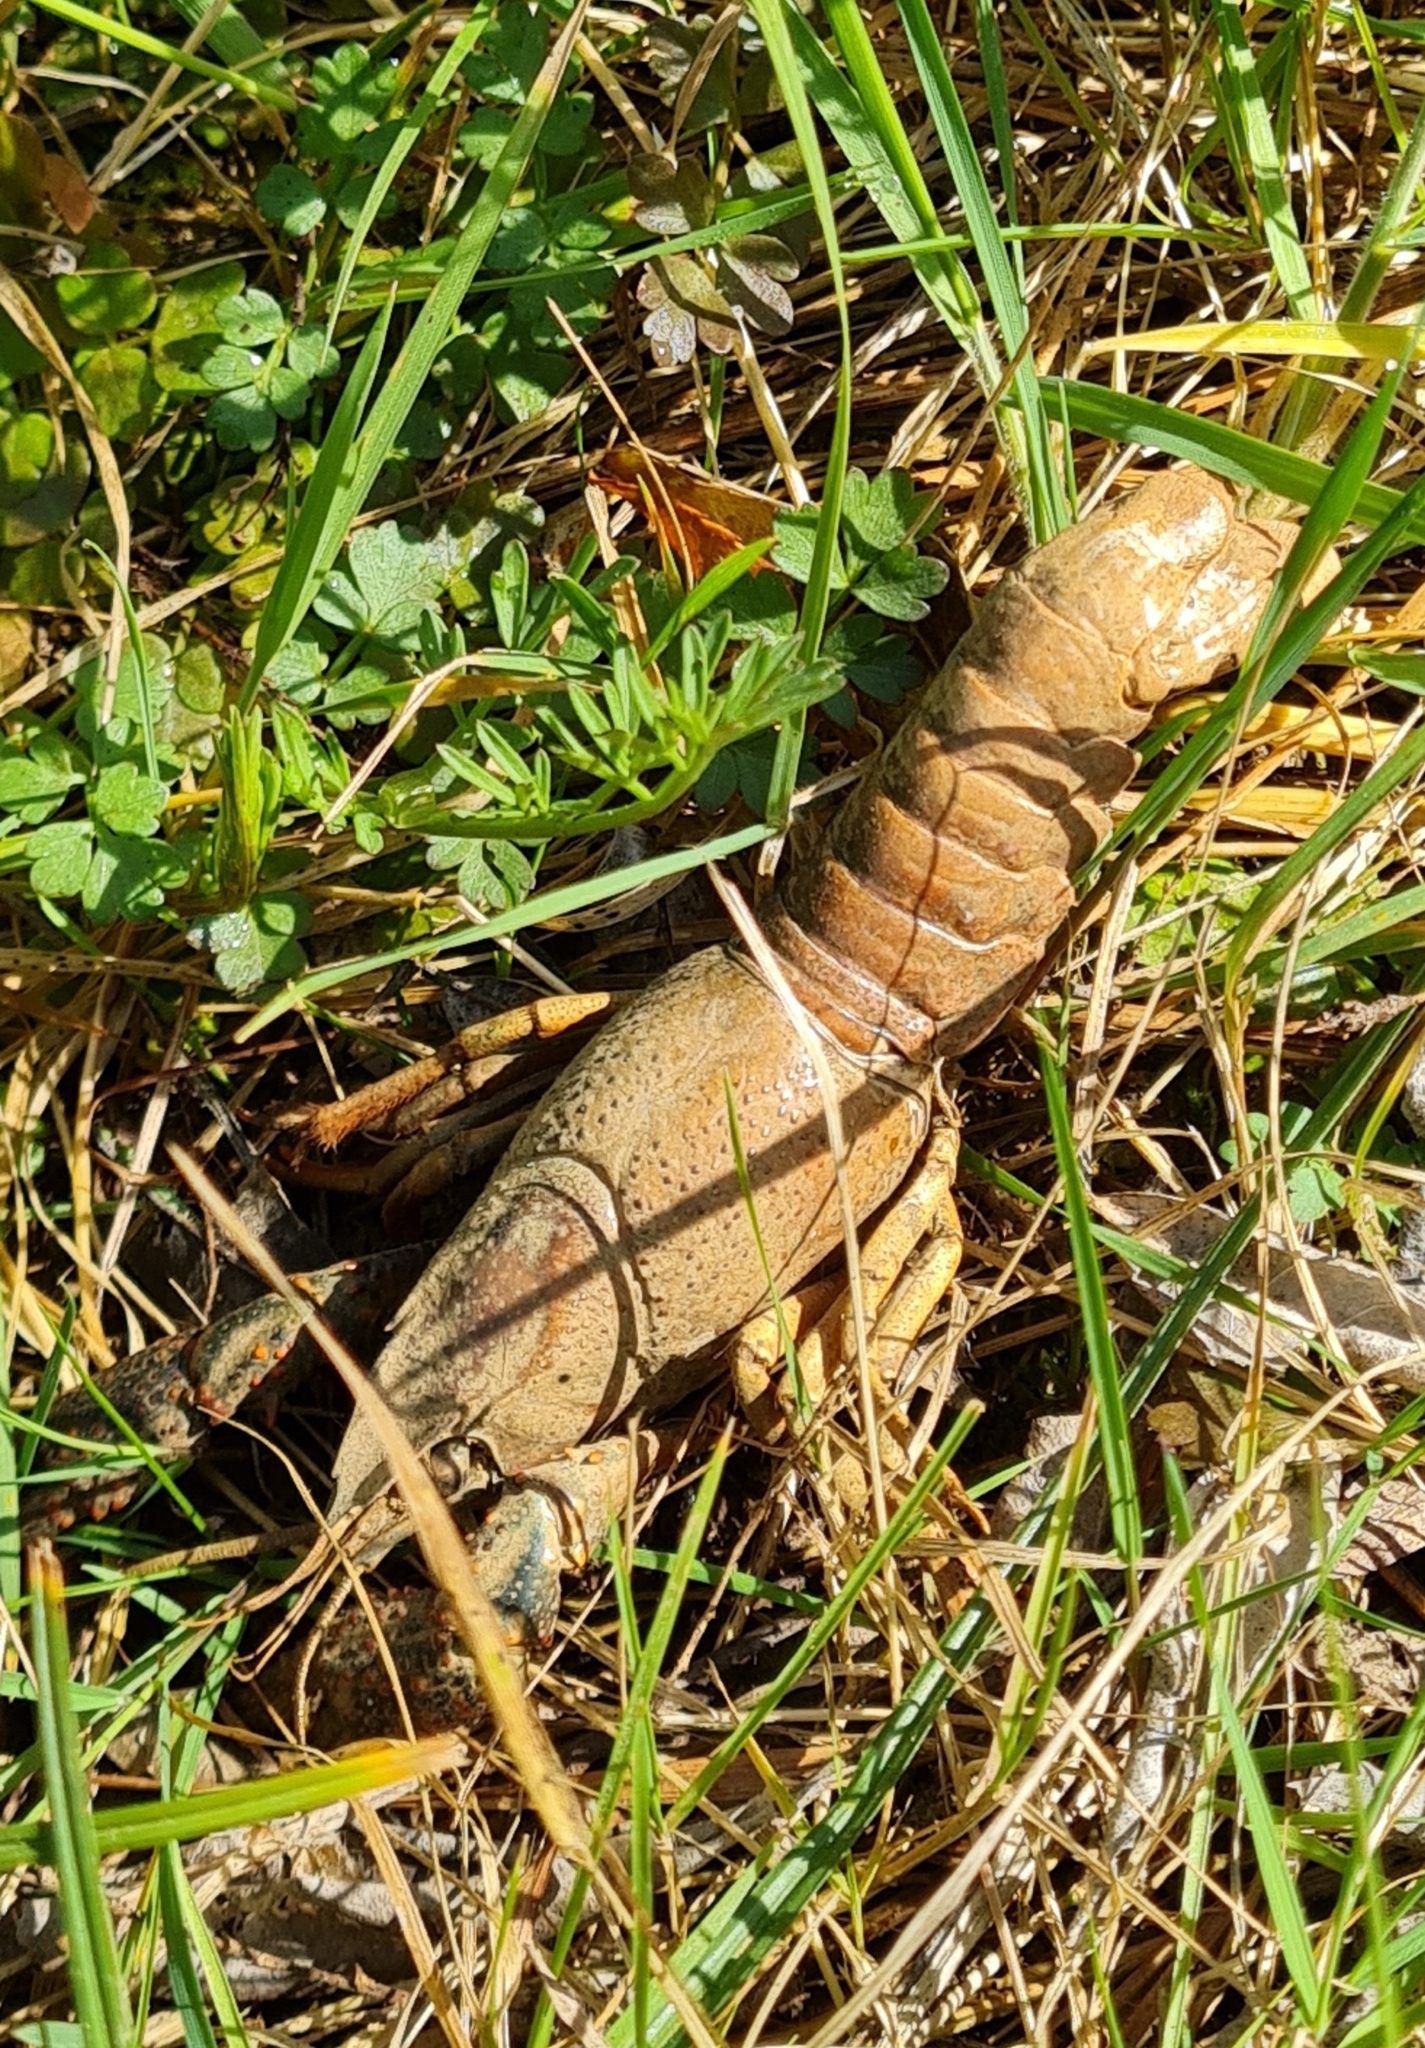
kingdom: Animalia
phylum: Arthropoda
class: Malacostraca
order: Decapoda
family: Cambaridae
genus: Procambarus
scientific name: Procambarus clarkii
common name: Red swamp crayfish
